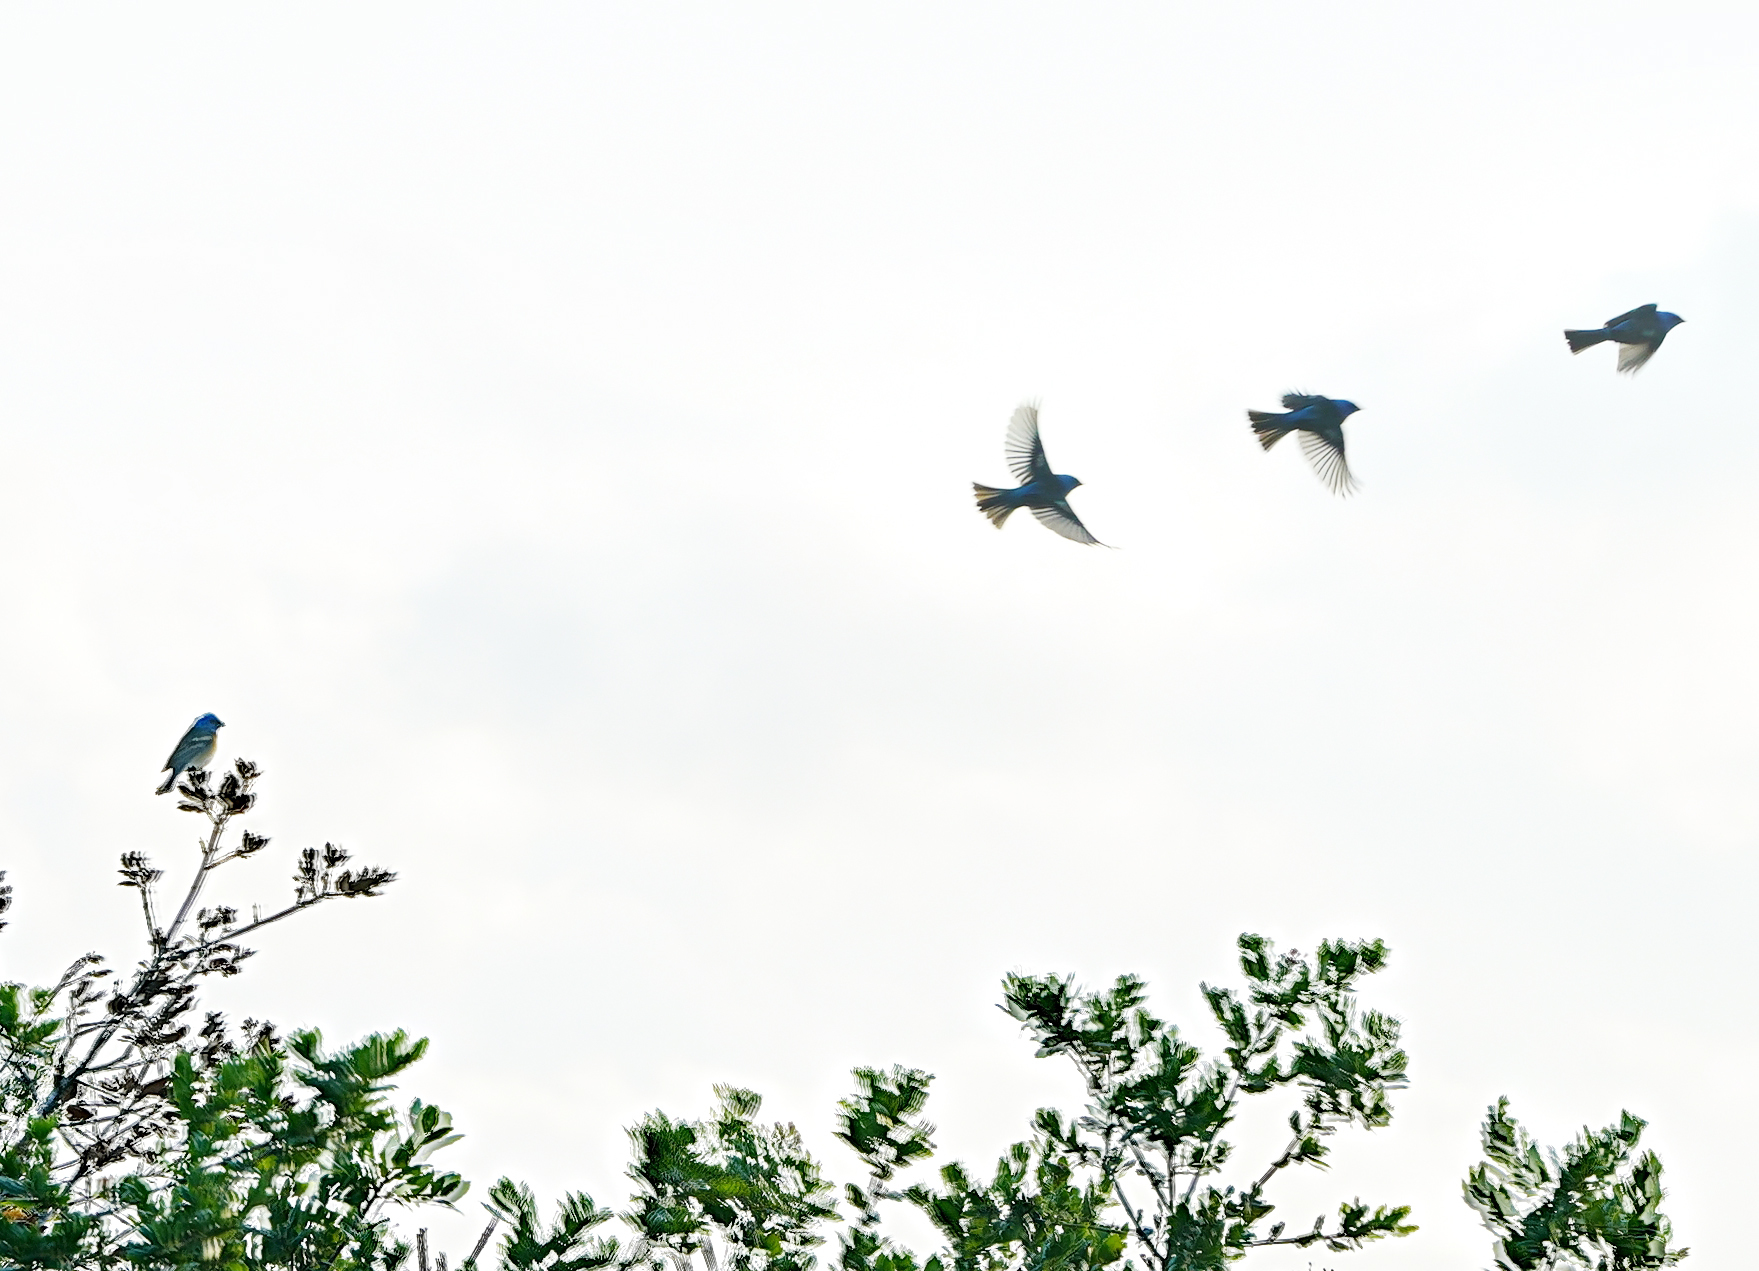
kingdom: Animalia
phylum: Chordata
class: Aves
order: Passeriformes
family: Cardinalidae
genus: Passerina
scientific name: Passerina amoena
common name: Lazuli bunting
